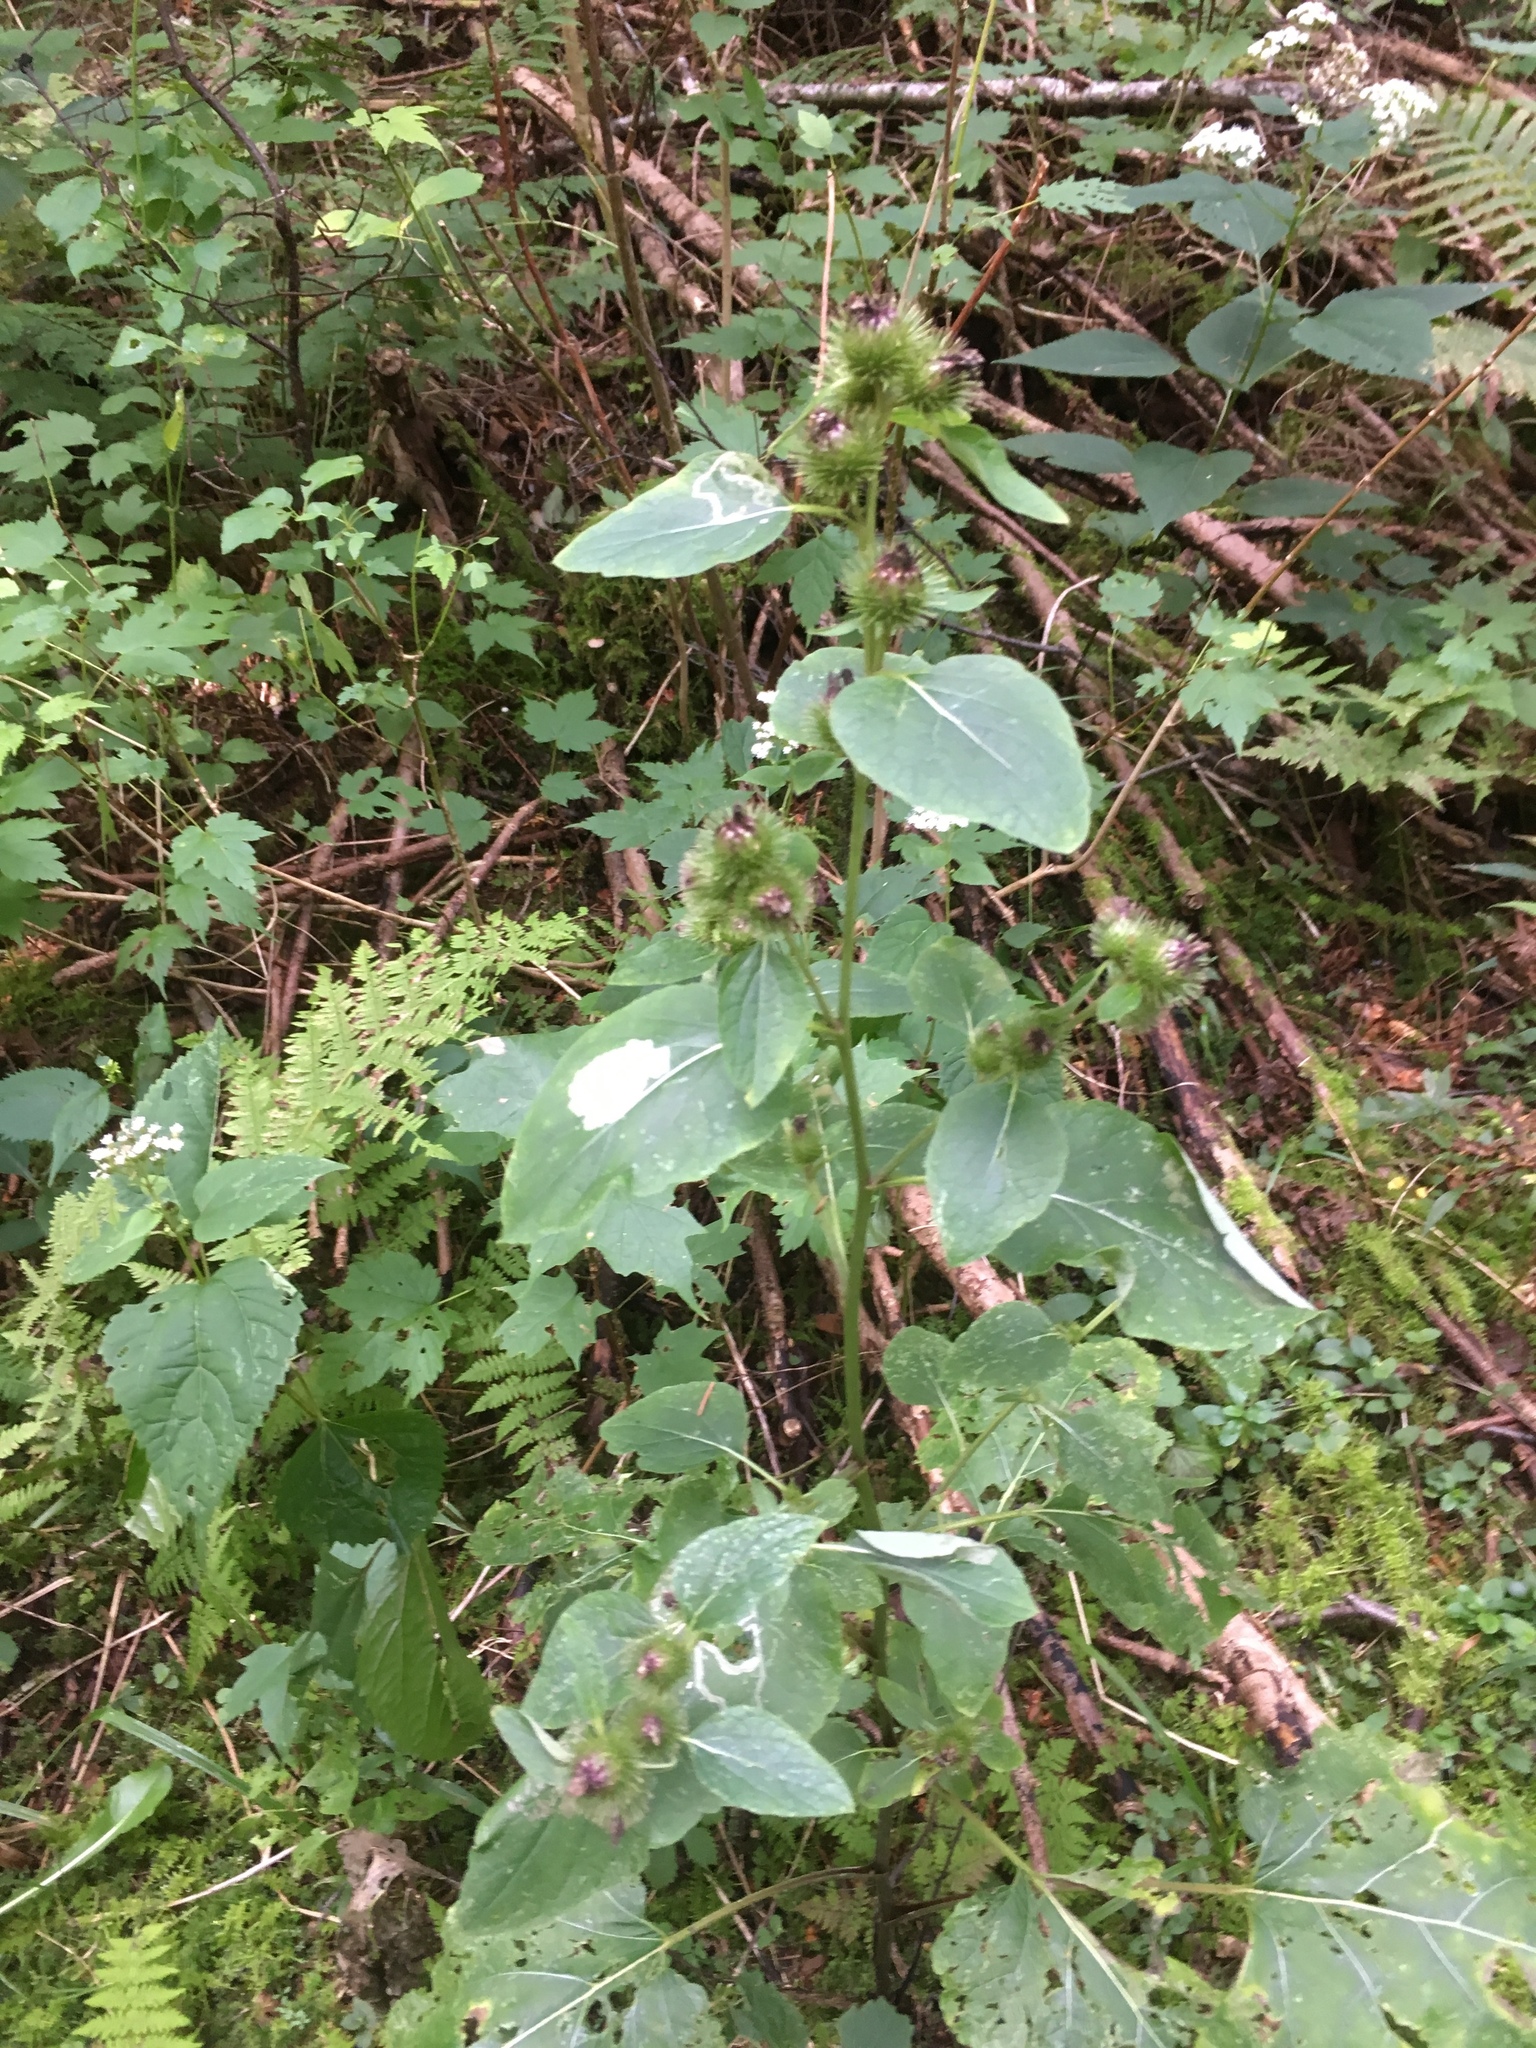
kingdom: Plantae
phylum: Tracheophyta
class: Magnoliopsida
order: Asterales
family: Asteraceae
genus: Arctium
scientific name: Arctium minus
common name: Lesser burdock
